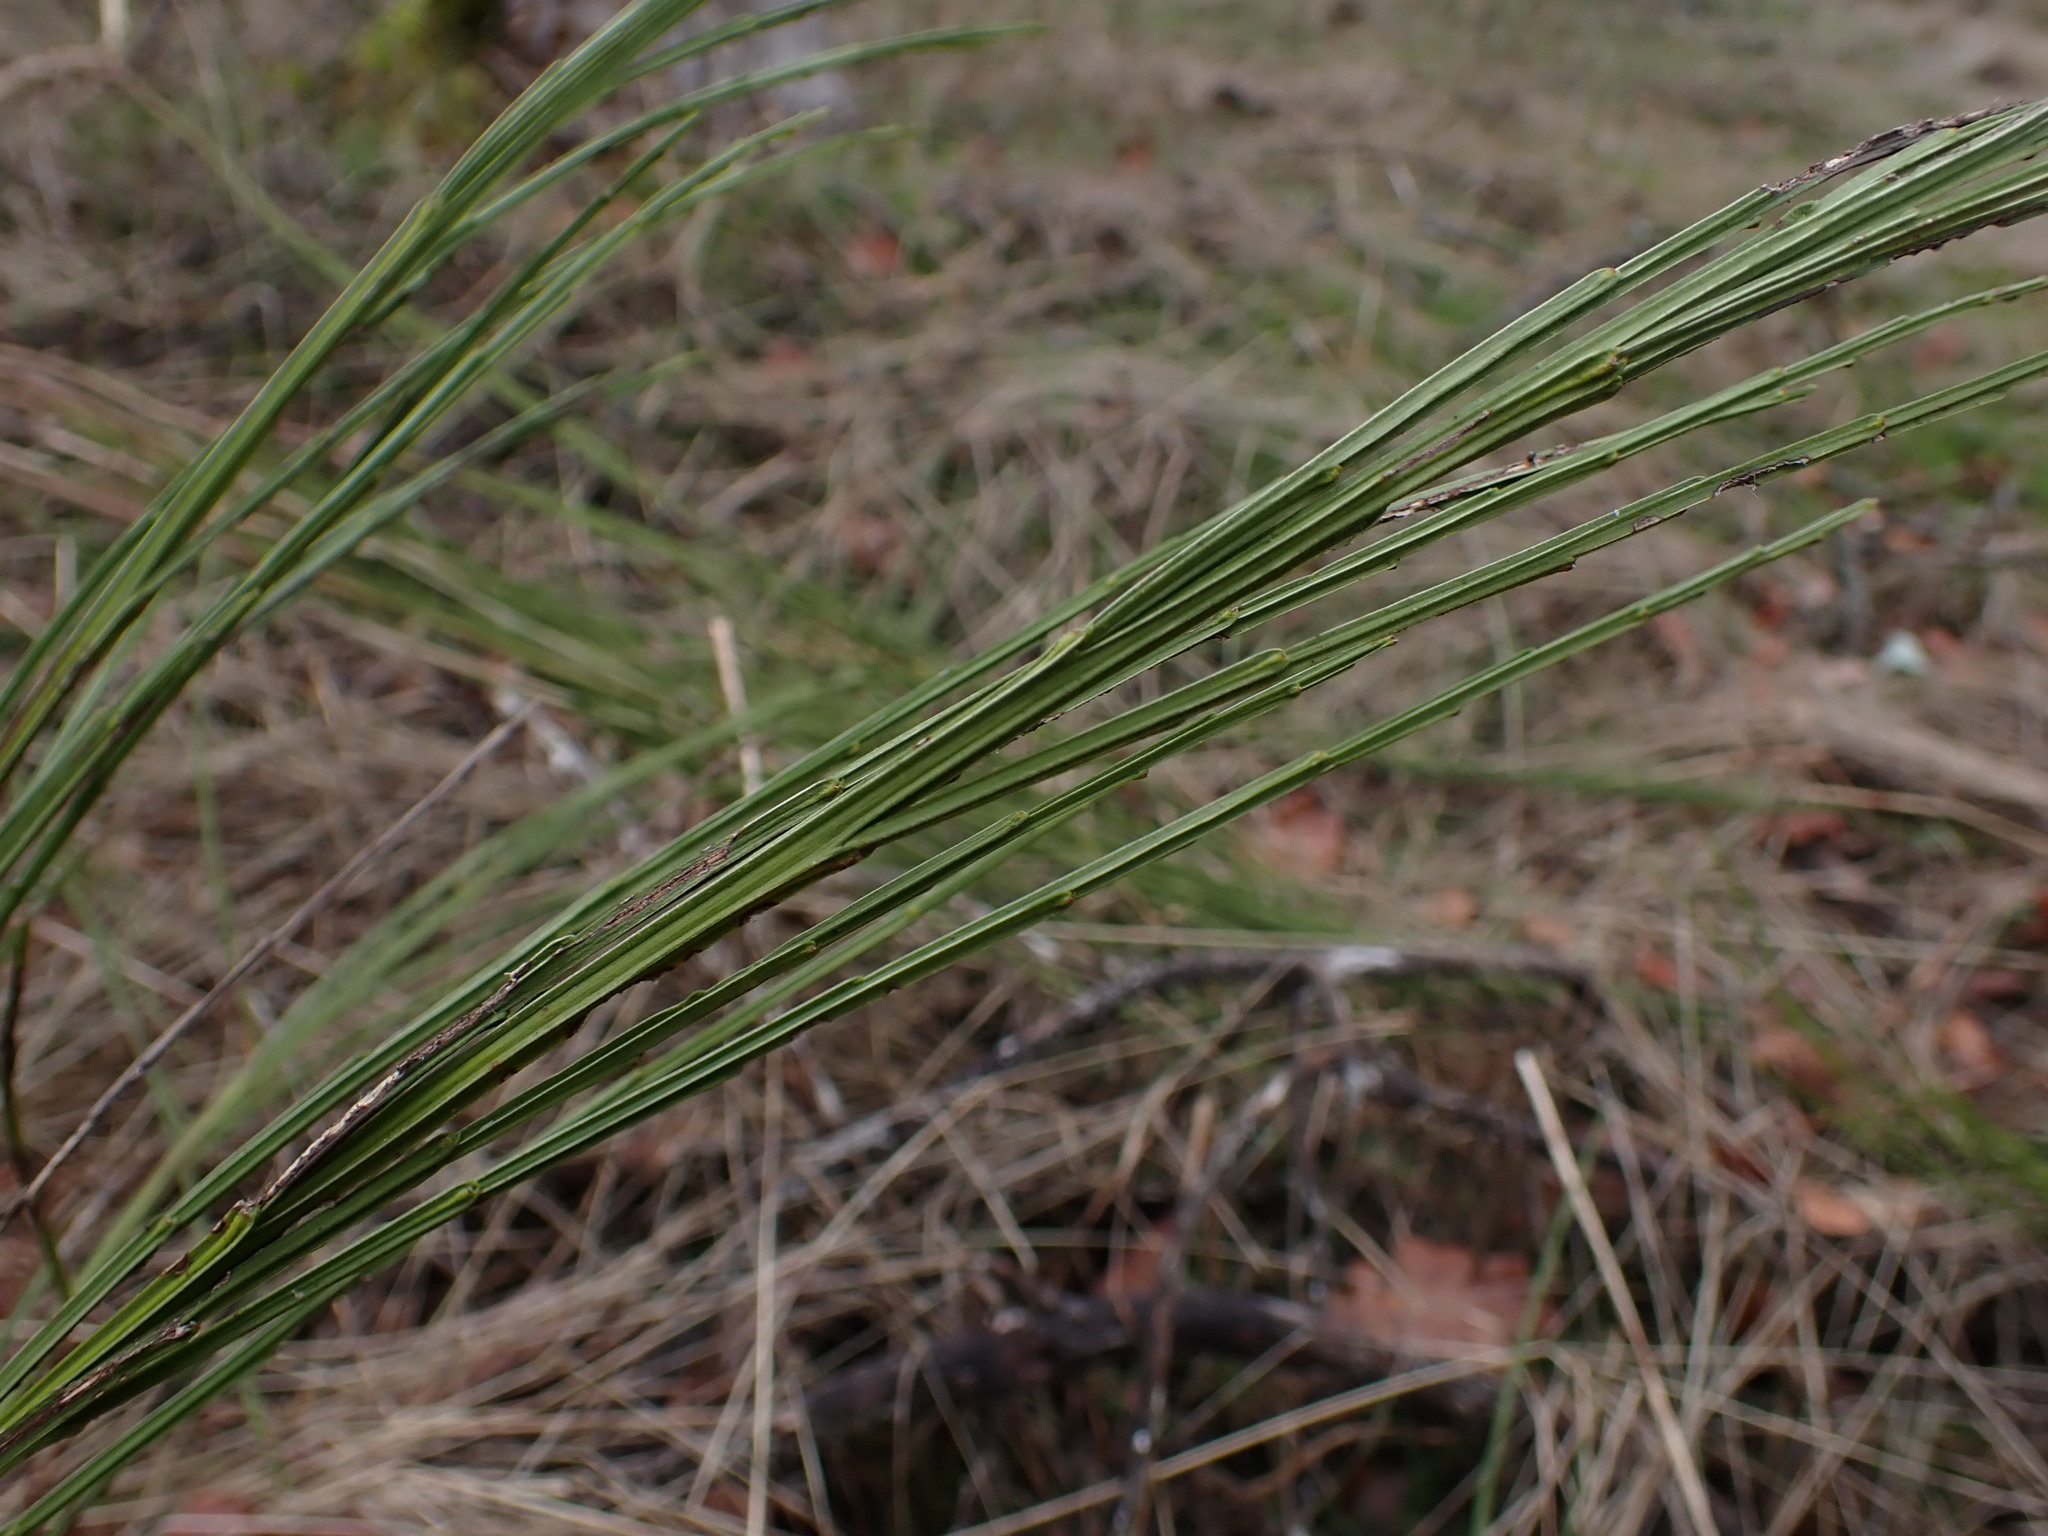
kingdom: Plantae
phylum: Tracheophyta
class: Magnoliopsida
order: Fabales
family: Fabaceae
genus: Cytisus
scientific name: Cytisus scoparius
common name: Scotch broom
